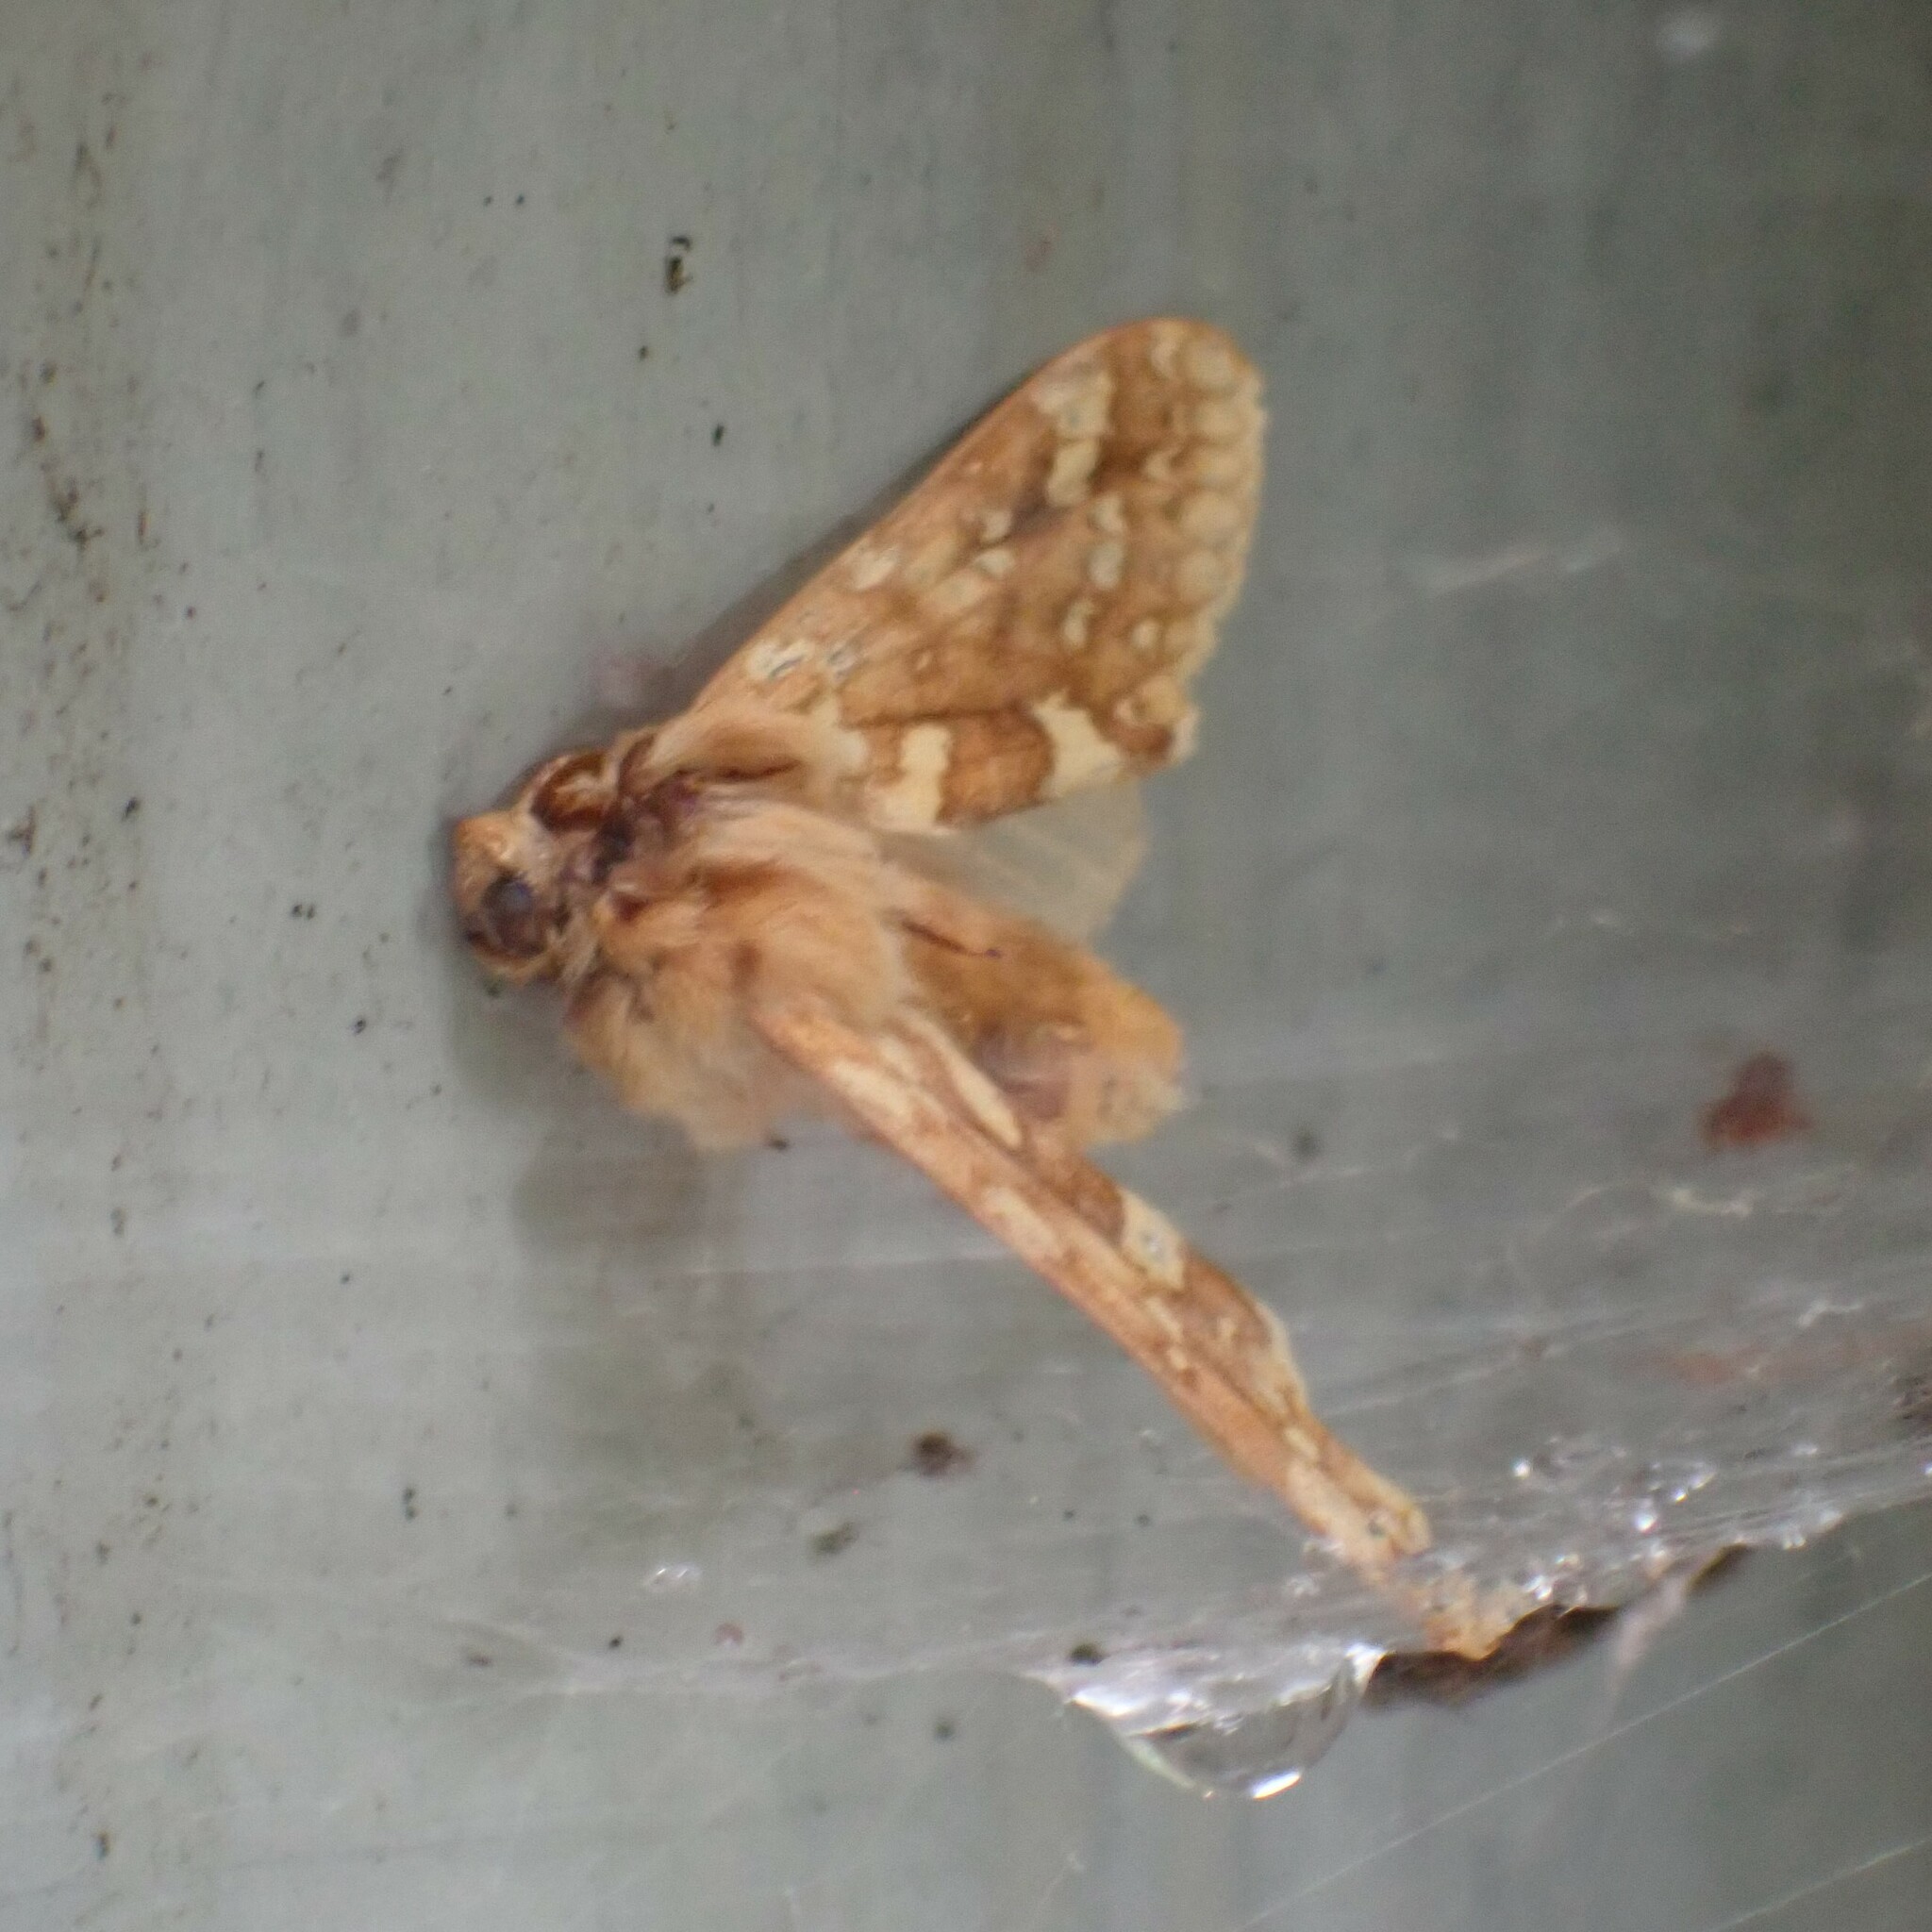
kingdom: Animalia
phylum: Arthropoda
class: Insecta
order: Lepidoptera
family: Erebidae
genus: Lophocampa
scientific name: Lophocampa maculata
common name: Spotted tussock moth
